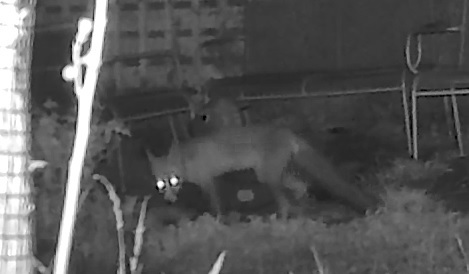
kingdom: Animalia
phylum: Chordata
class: Mammalia
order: Carnivora
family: Canidae
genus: Vulpes
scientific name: Vulpes vulpes
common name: Red fox
